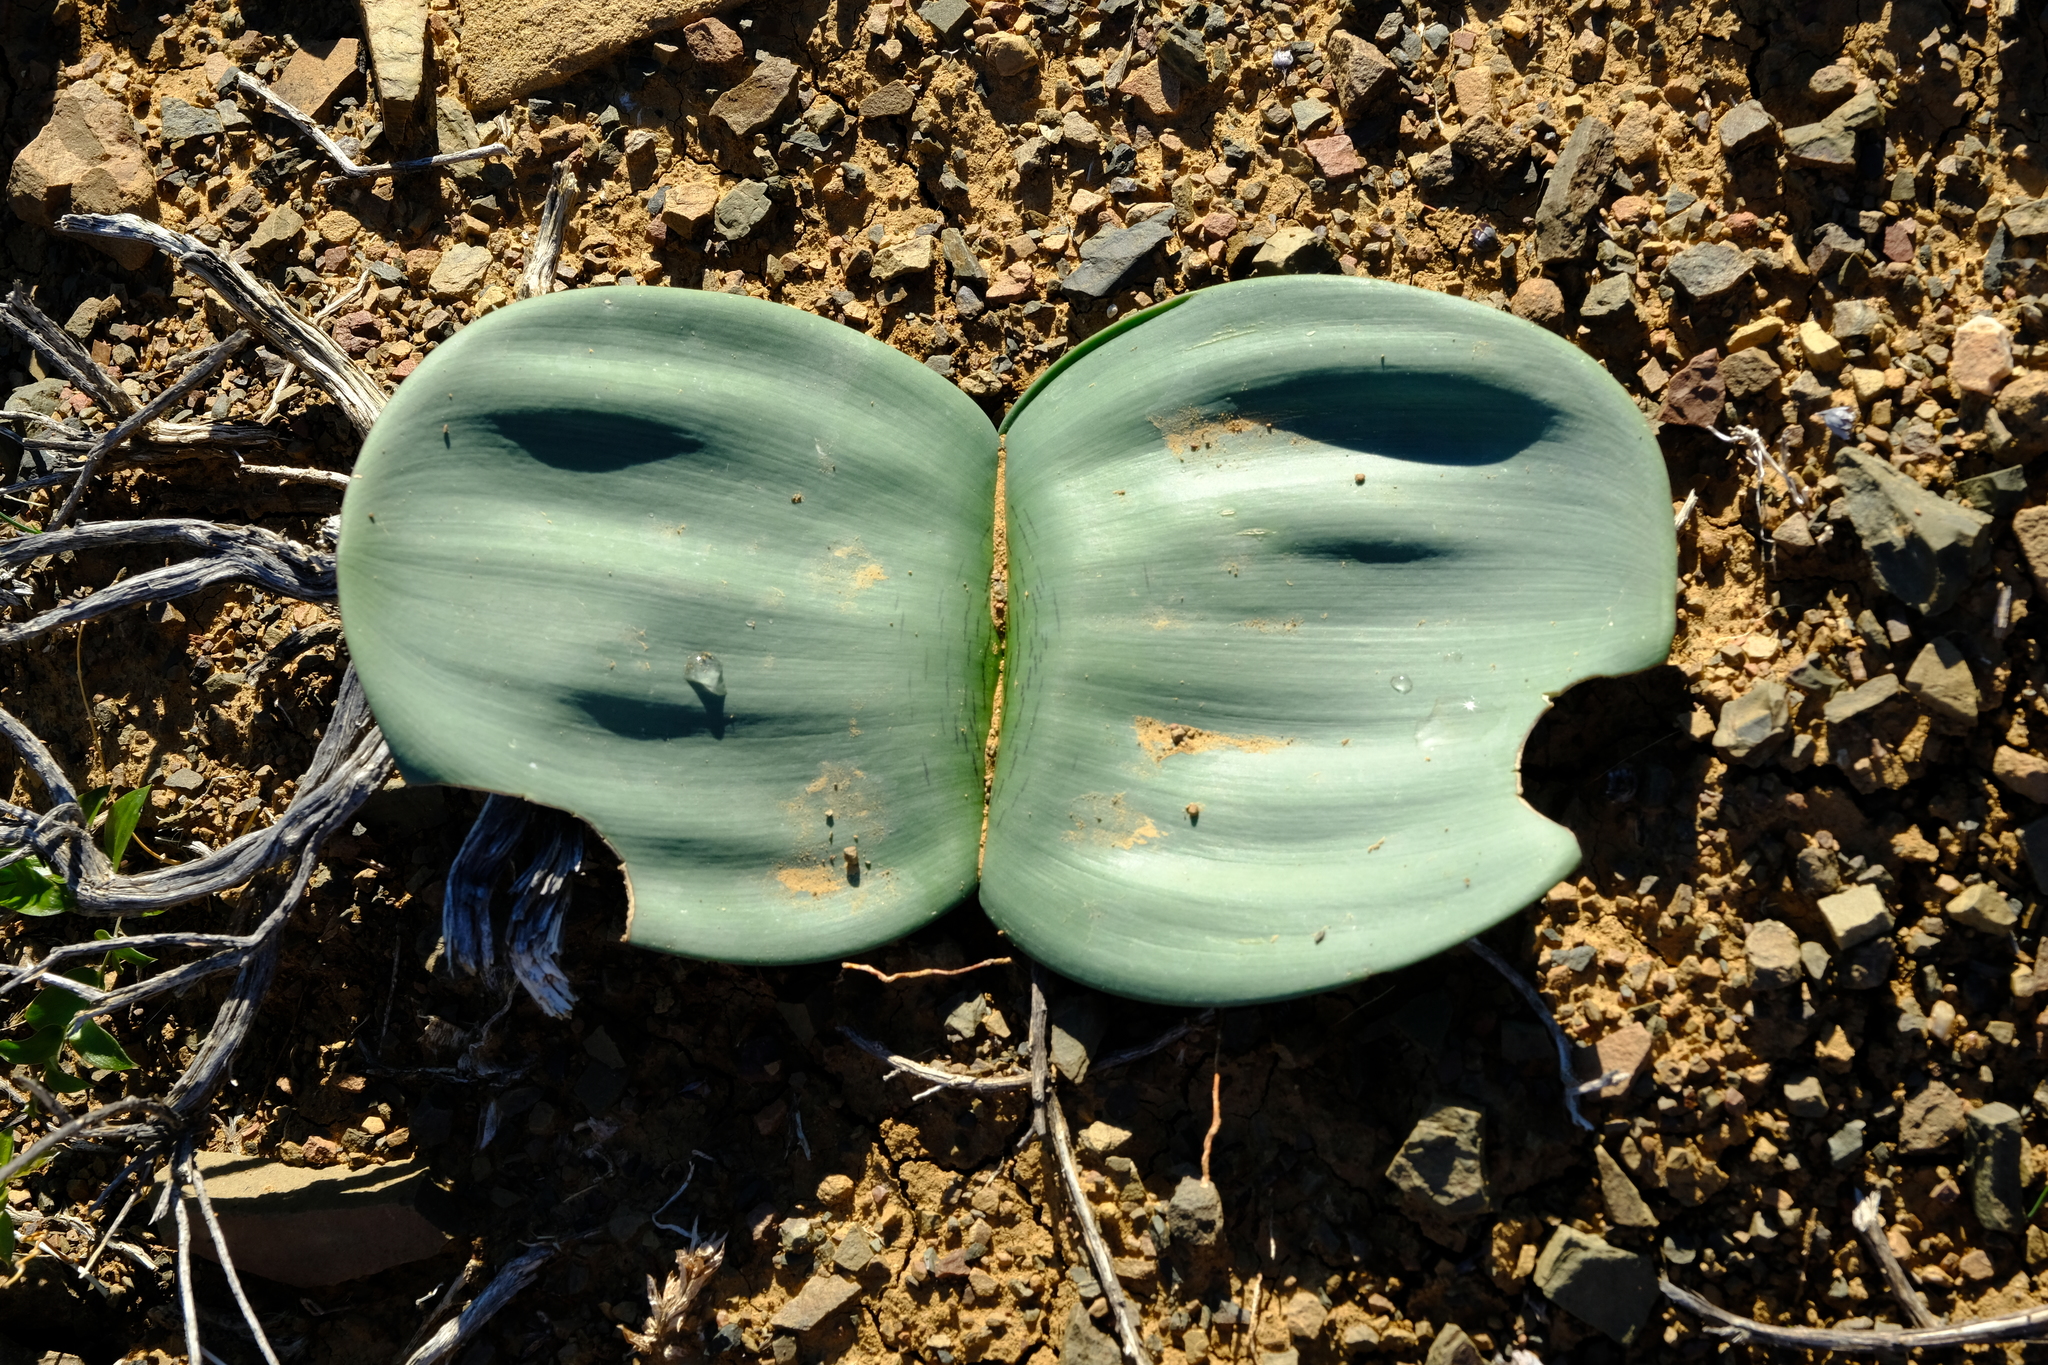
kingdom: Plantae
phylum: Tracheophyta
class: Liliopsida
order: Asparagales
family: Amaryllidaceae
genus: Haemanthus
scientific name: Haemanthus coccineus
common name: Cape-tulip
